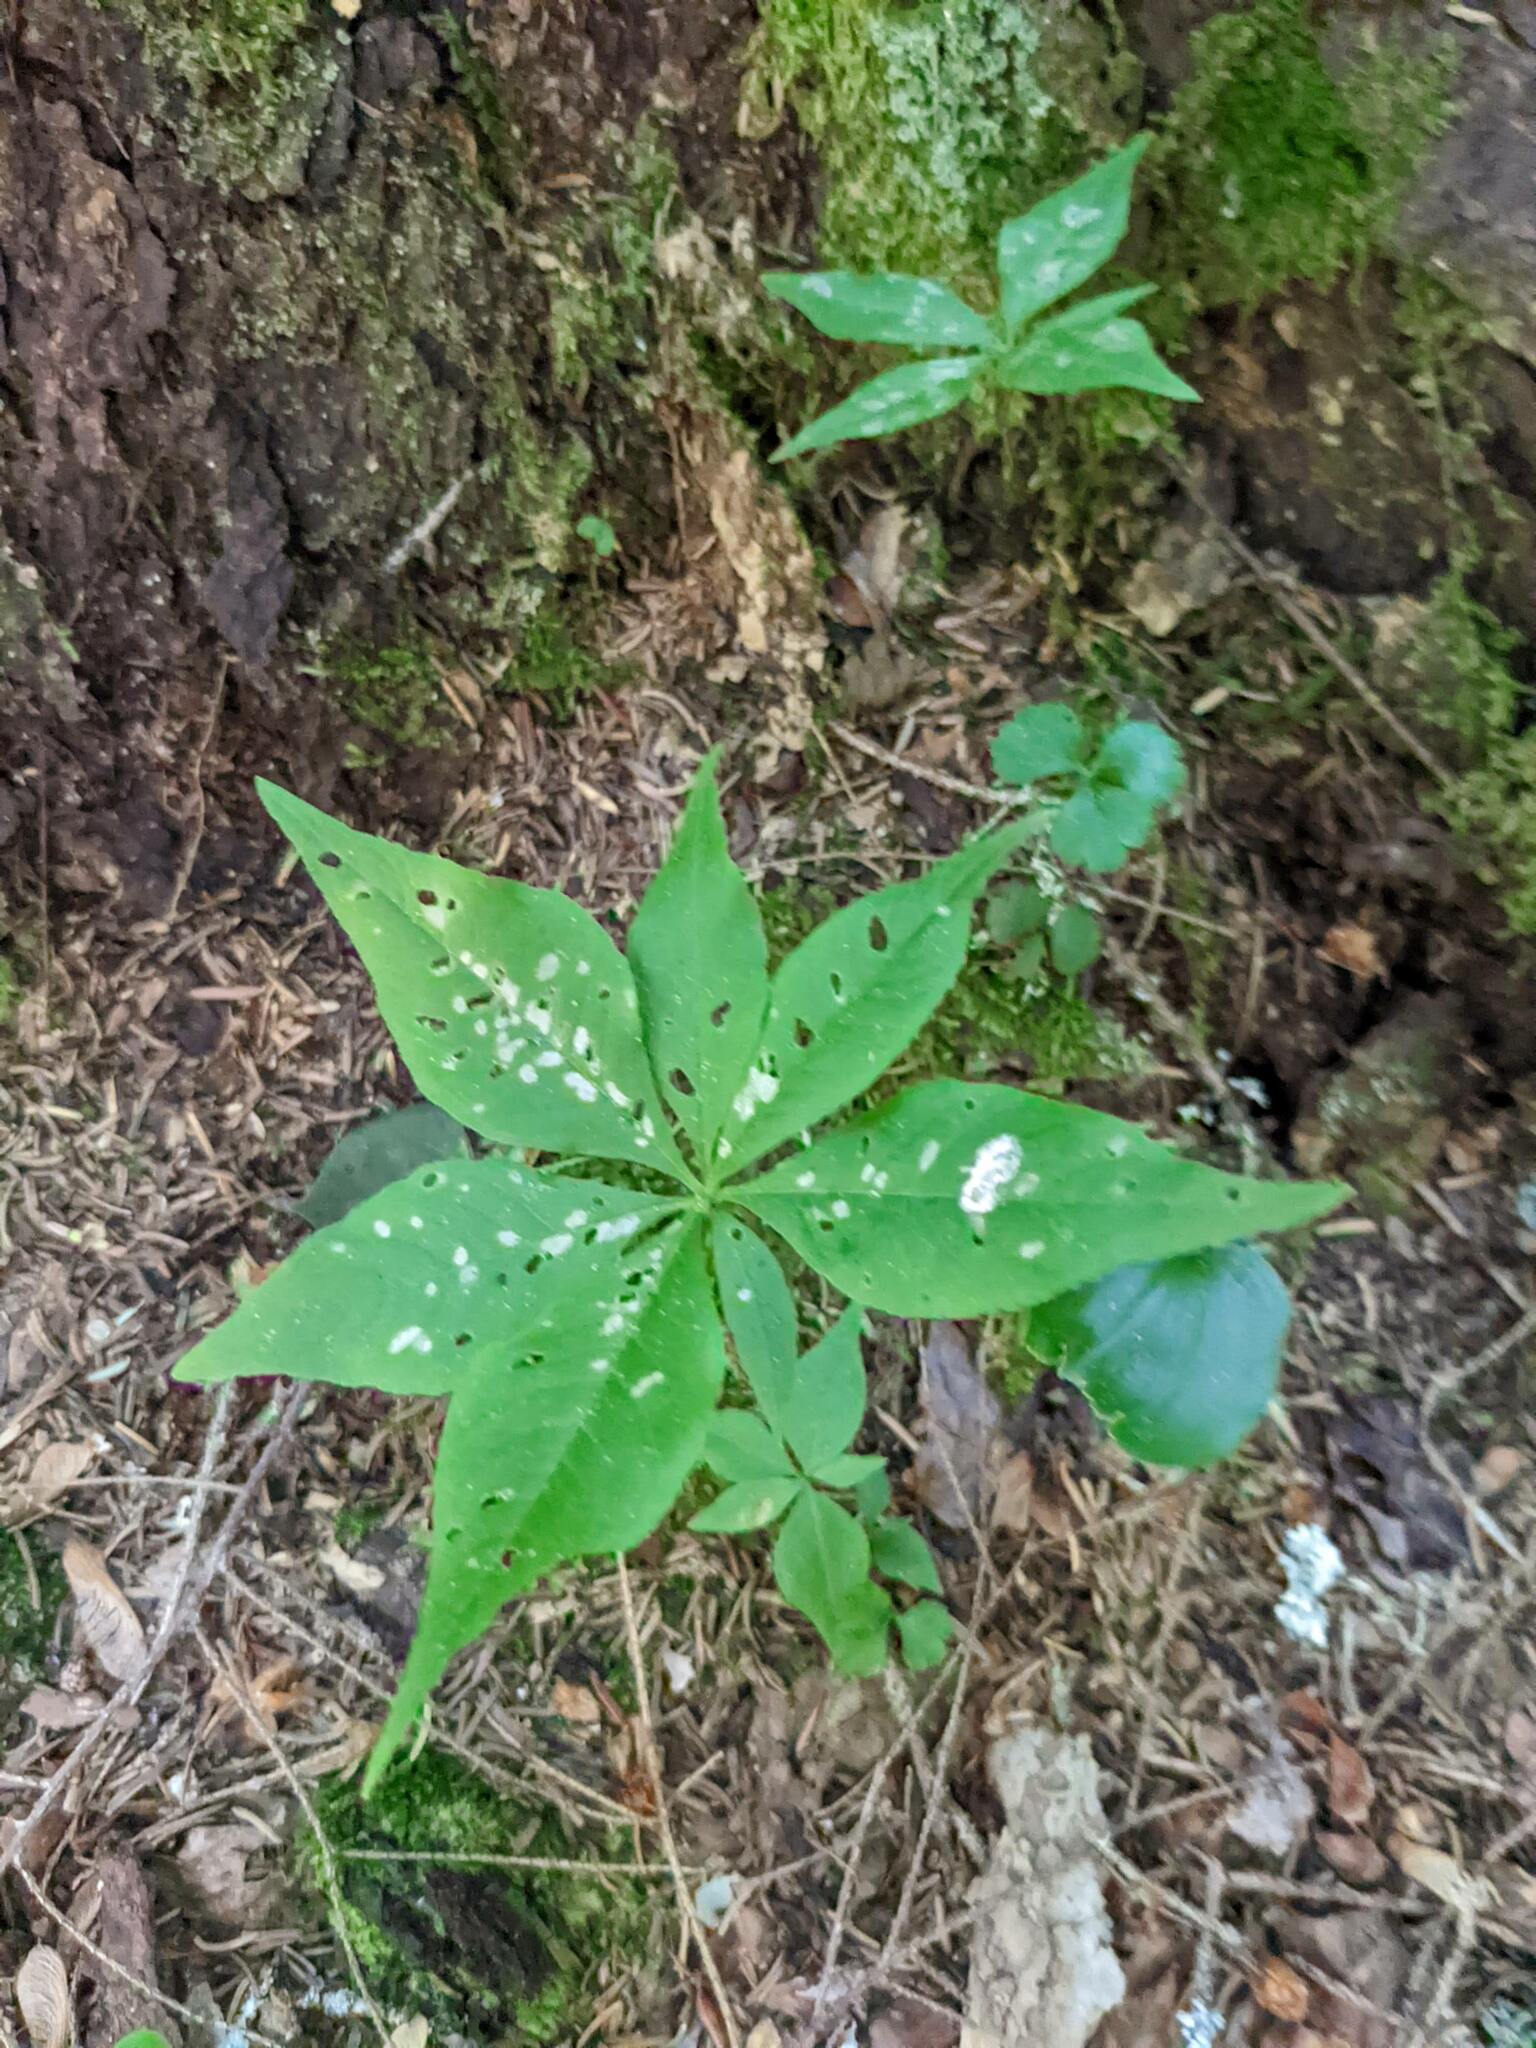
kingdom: Plantae
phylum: Tracheophyta
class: Magnoliopsida
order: Ericales
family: Primulaceae
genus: Lysimachia
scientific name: Lysimachia borealis
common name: American starflower
